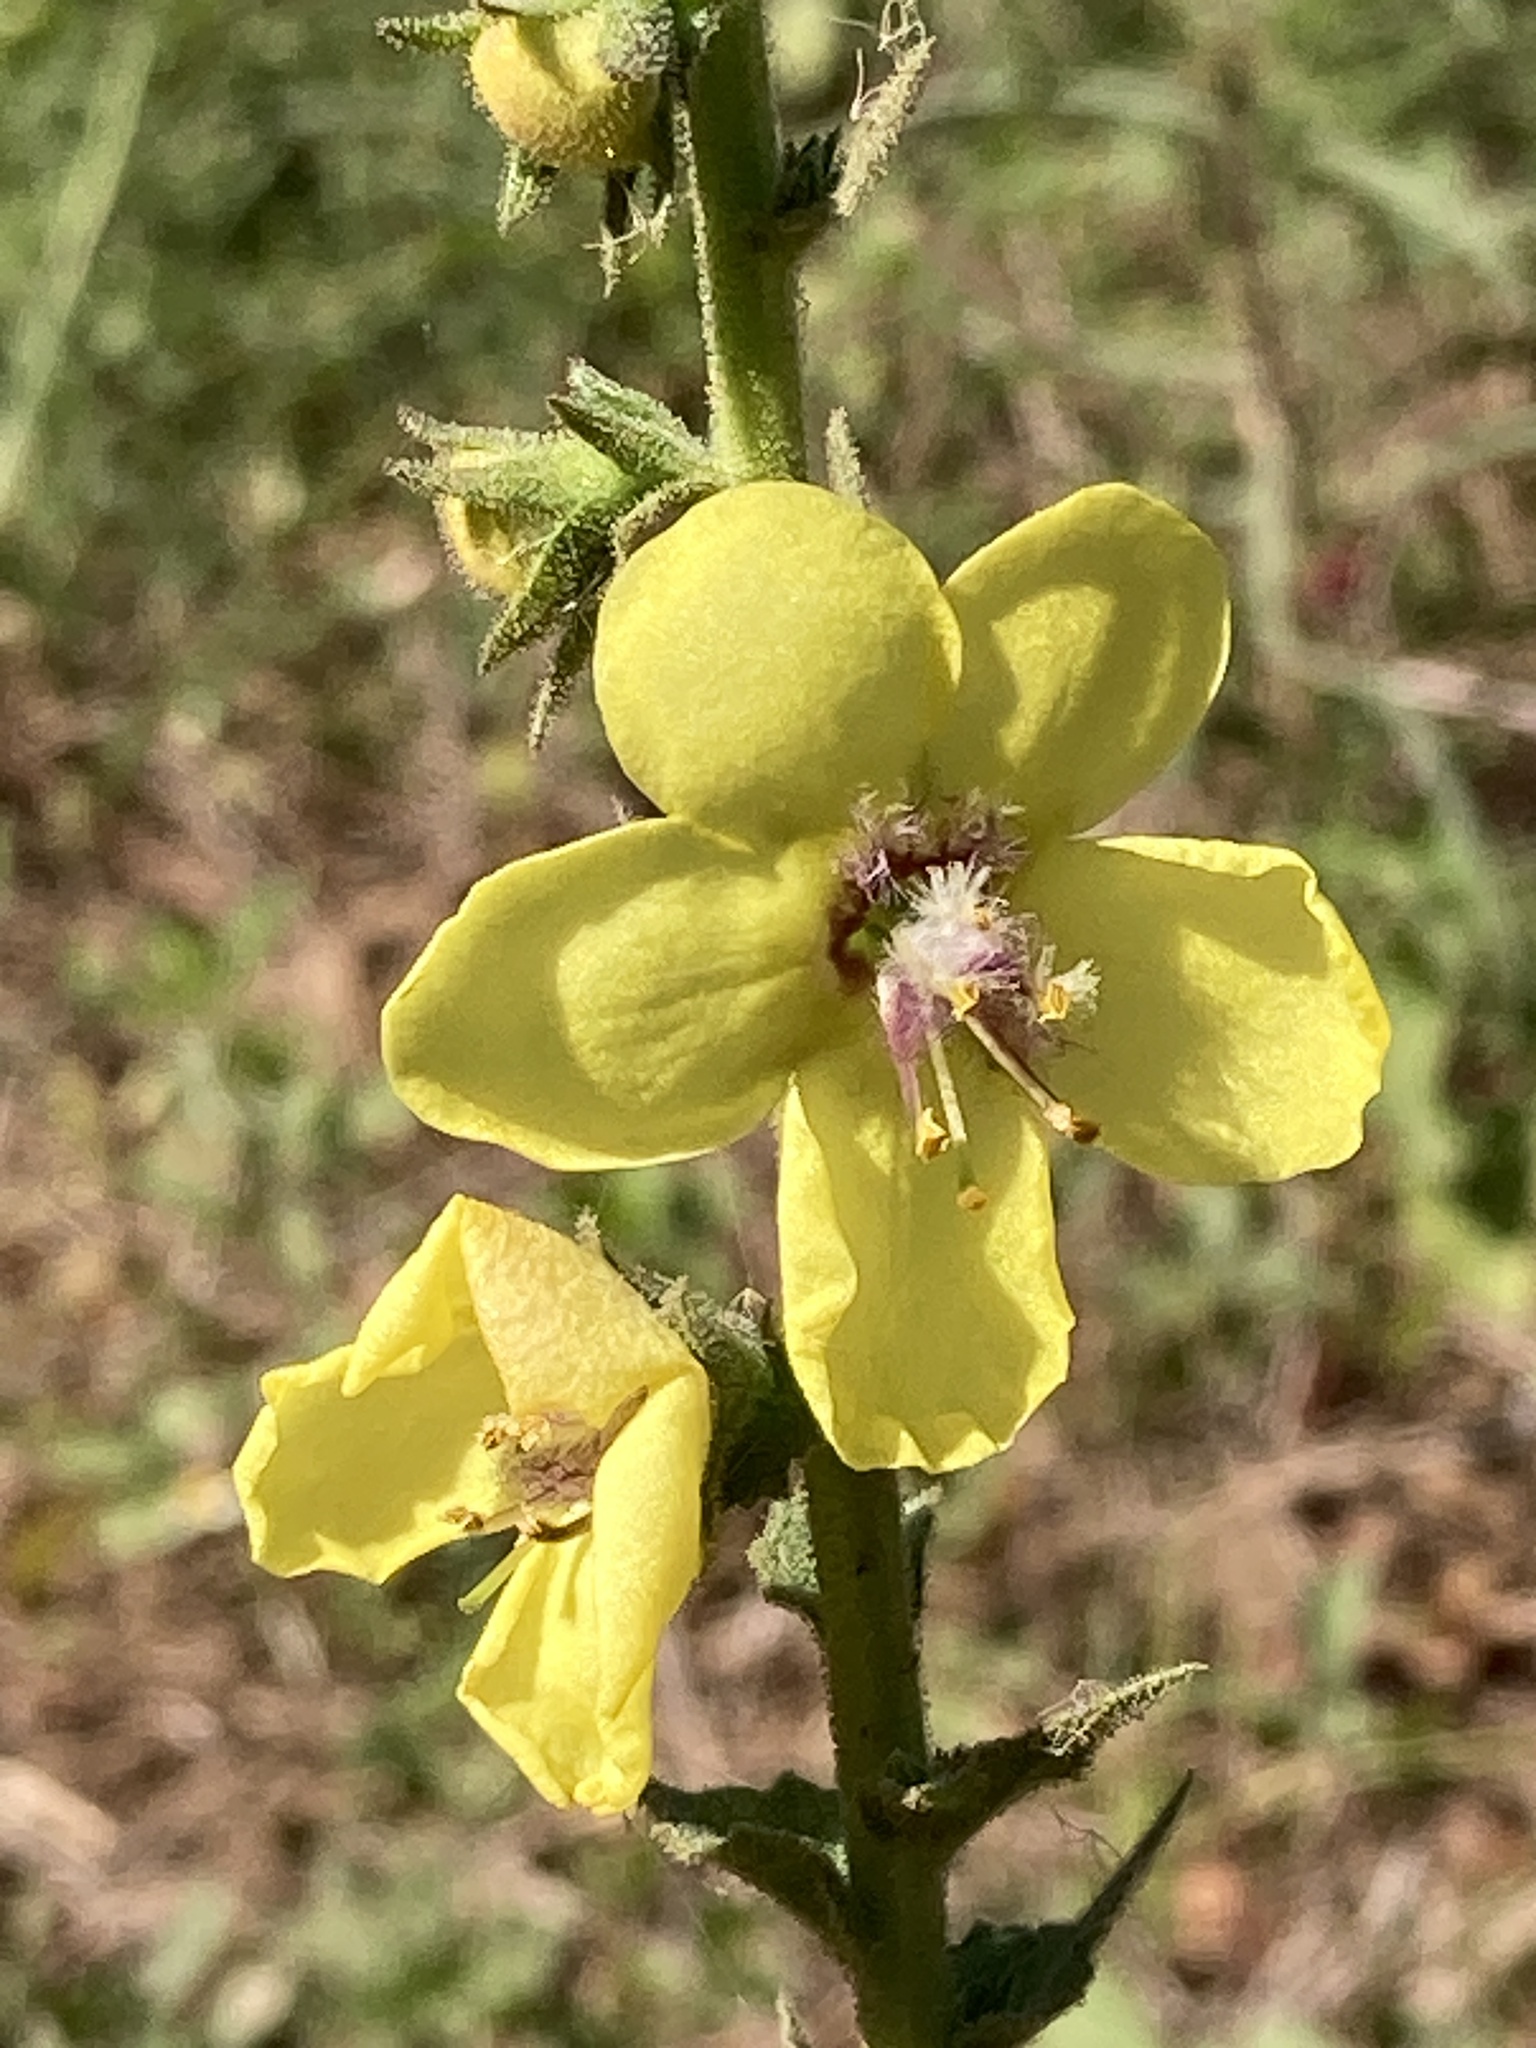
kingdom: Plantae
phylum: Tracheophyta
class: Magnoliopsida
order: Lamiales
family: Scrophulariaceae
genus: Verbascum
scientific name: Verbascum virgatum
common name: Twiggy mullein
